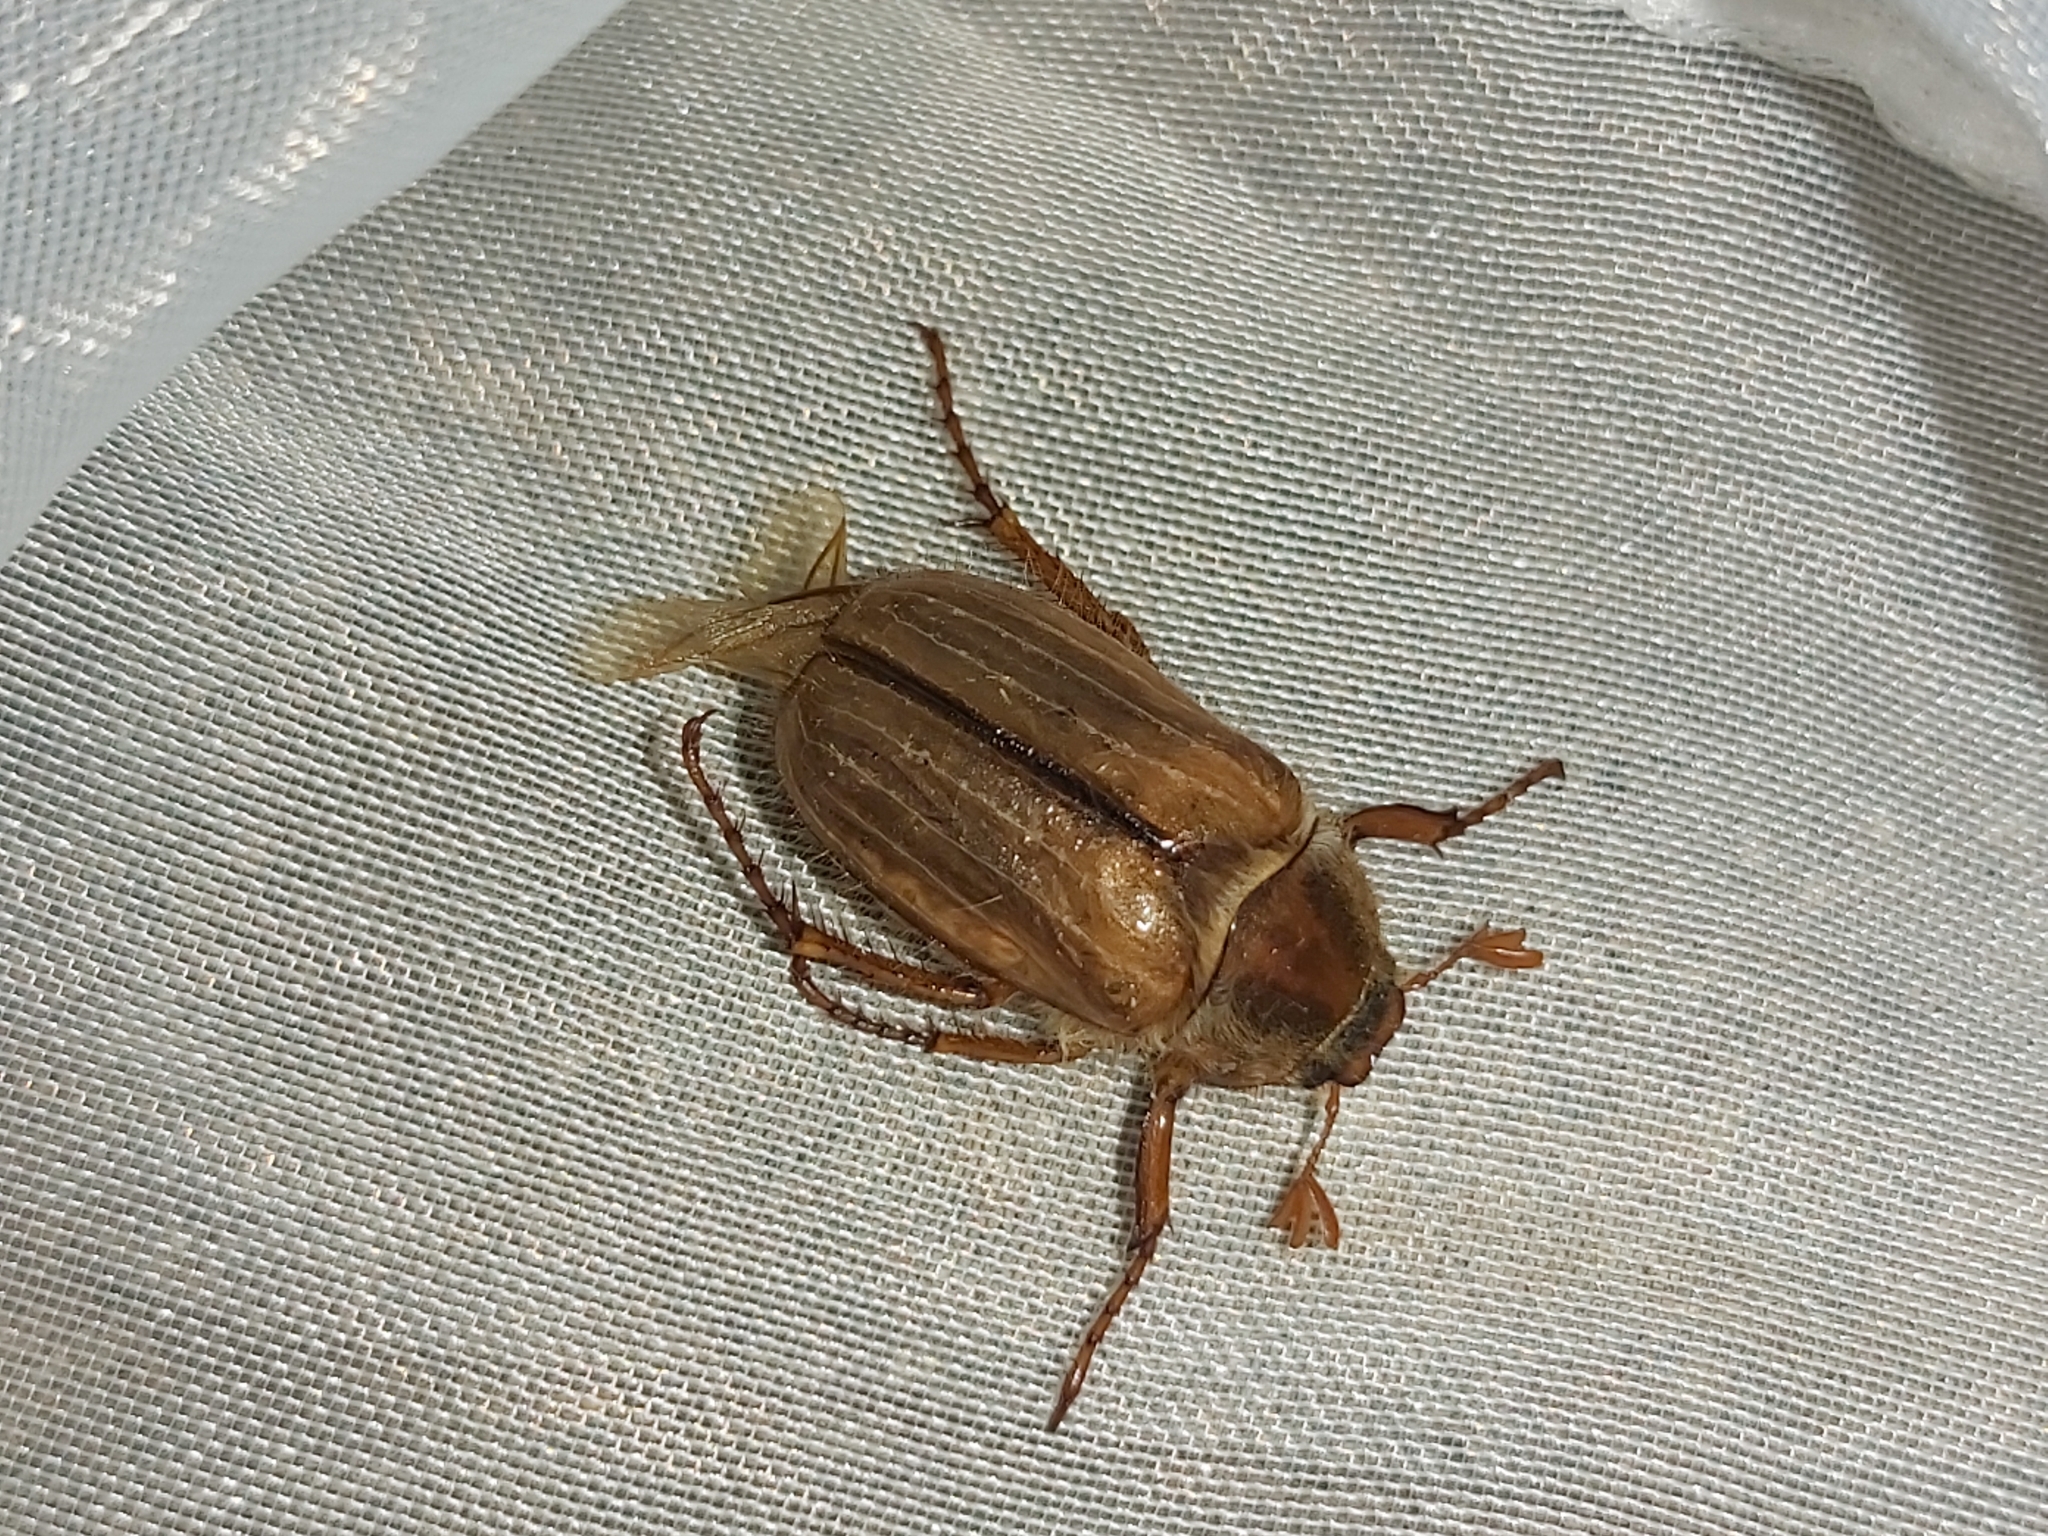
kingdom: Animalia
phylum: Arthropoda
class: Insecta
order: Coleoptera
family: Scarabaeidae
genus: Amphimallon
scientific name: Amphimallon solstitiale
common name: Summer chafer
